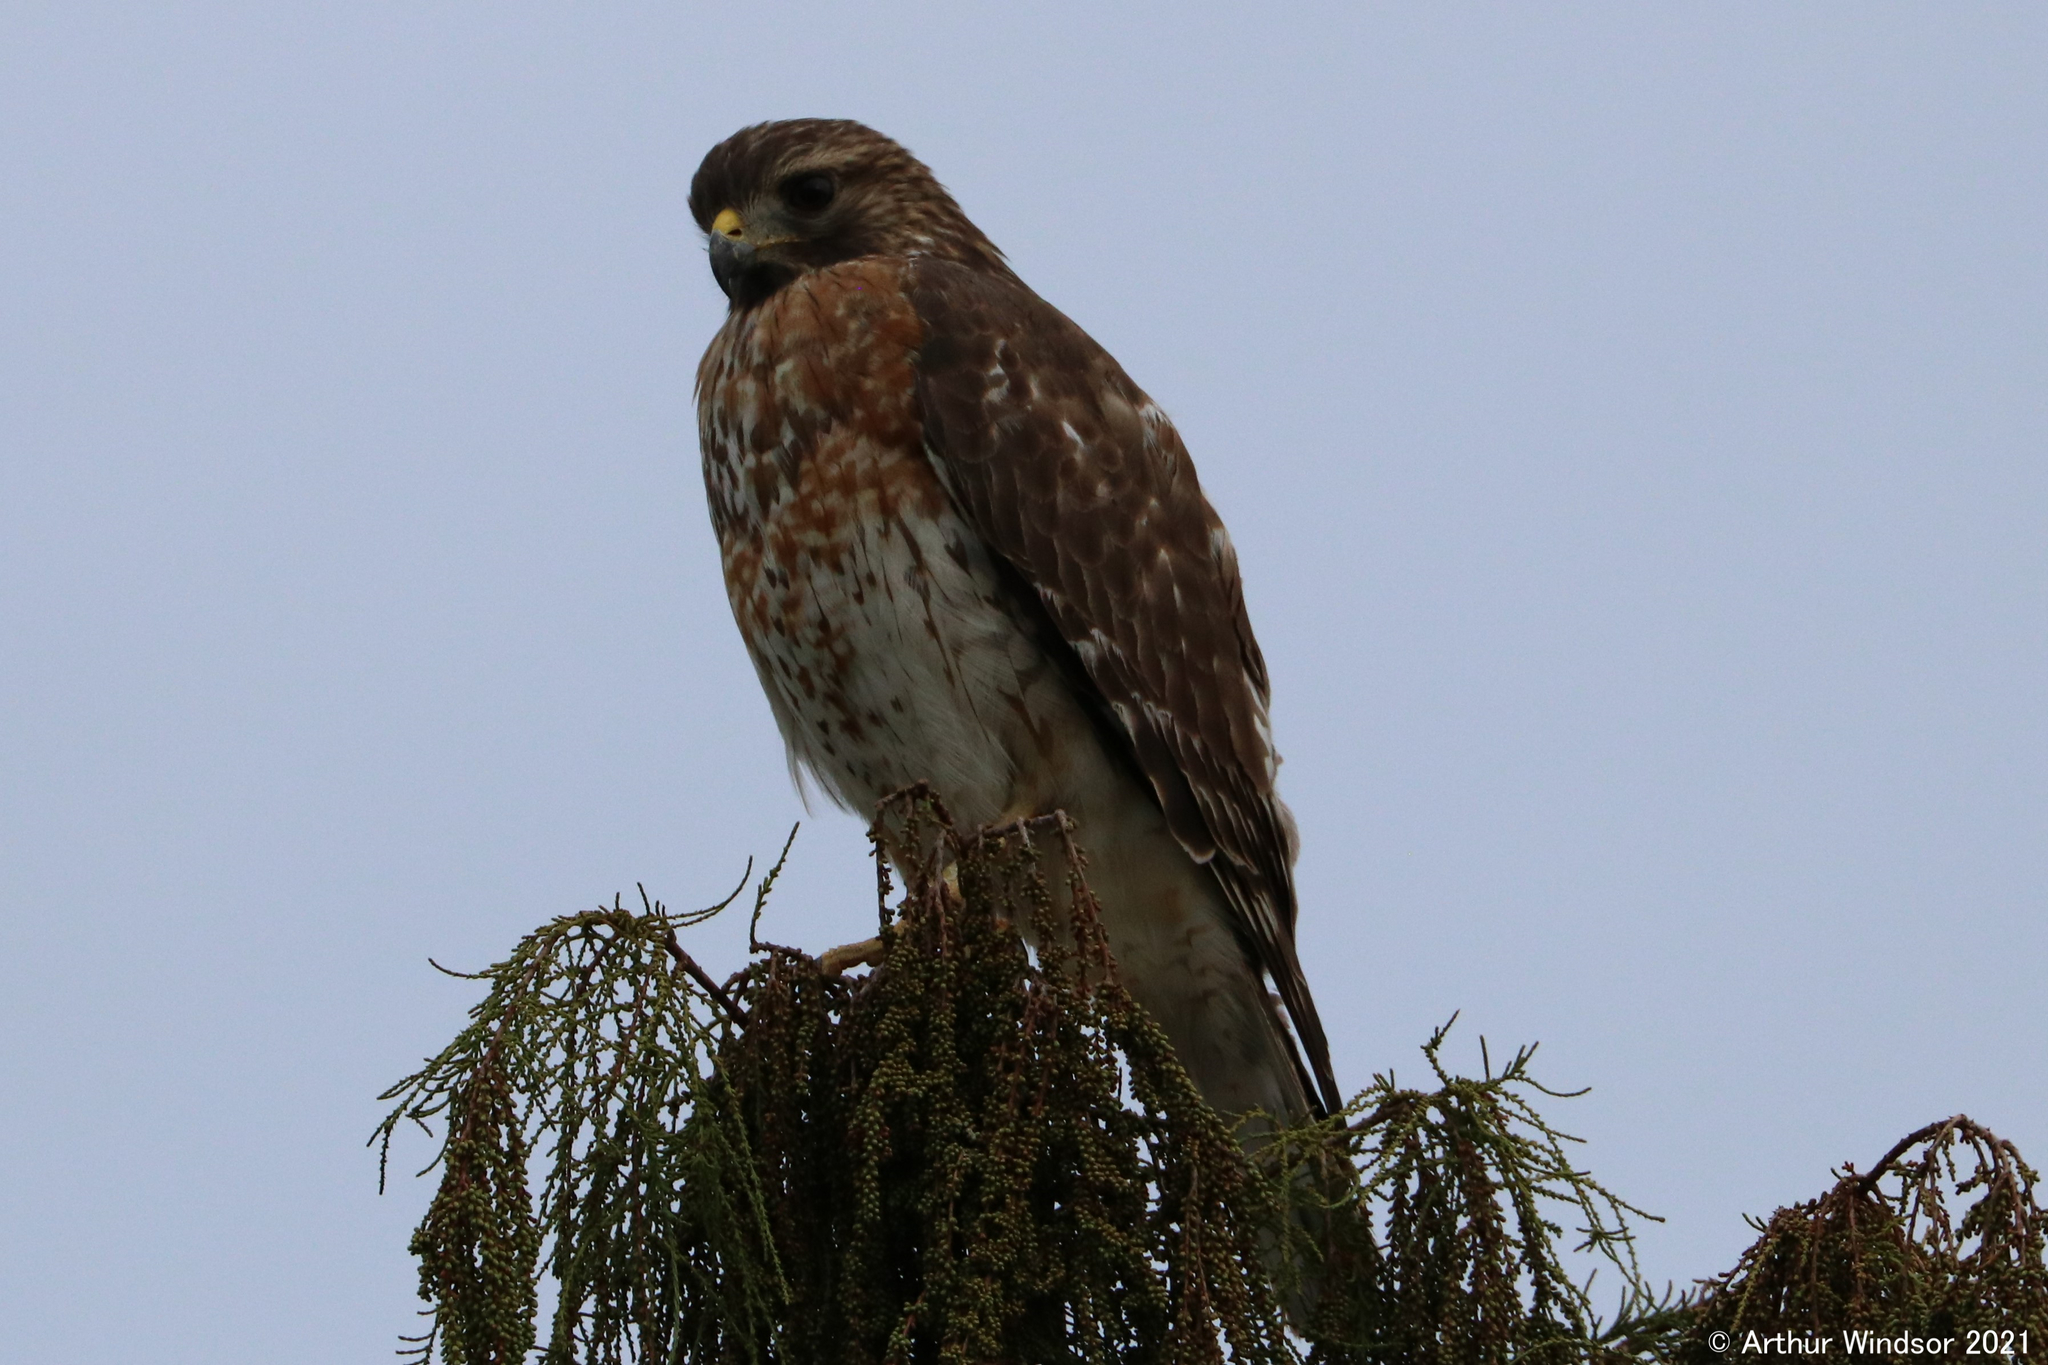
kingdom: Animalia
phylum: Chordata
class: Aves
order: Accipitriformes
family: Accipitridae
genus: Buteo
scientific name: Buteo lineatus
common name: Red-shouldered hawk
